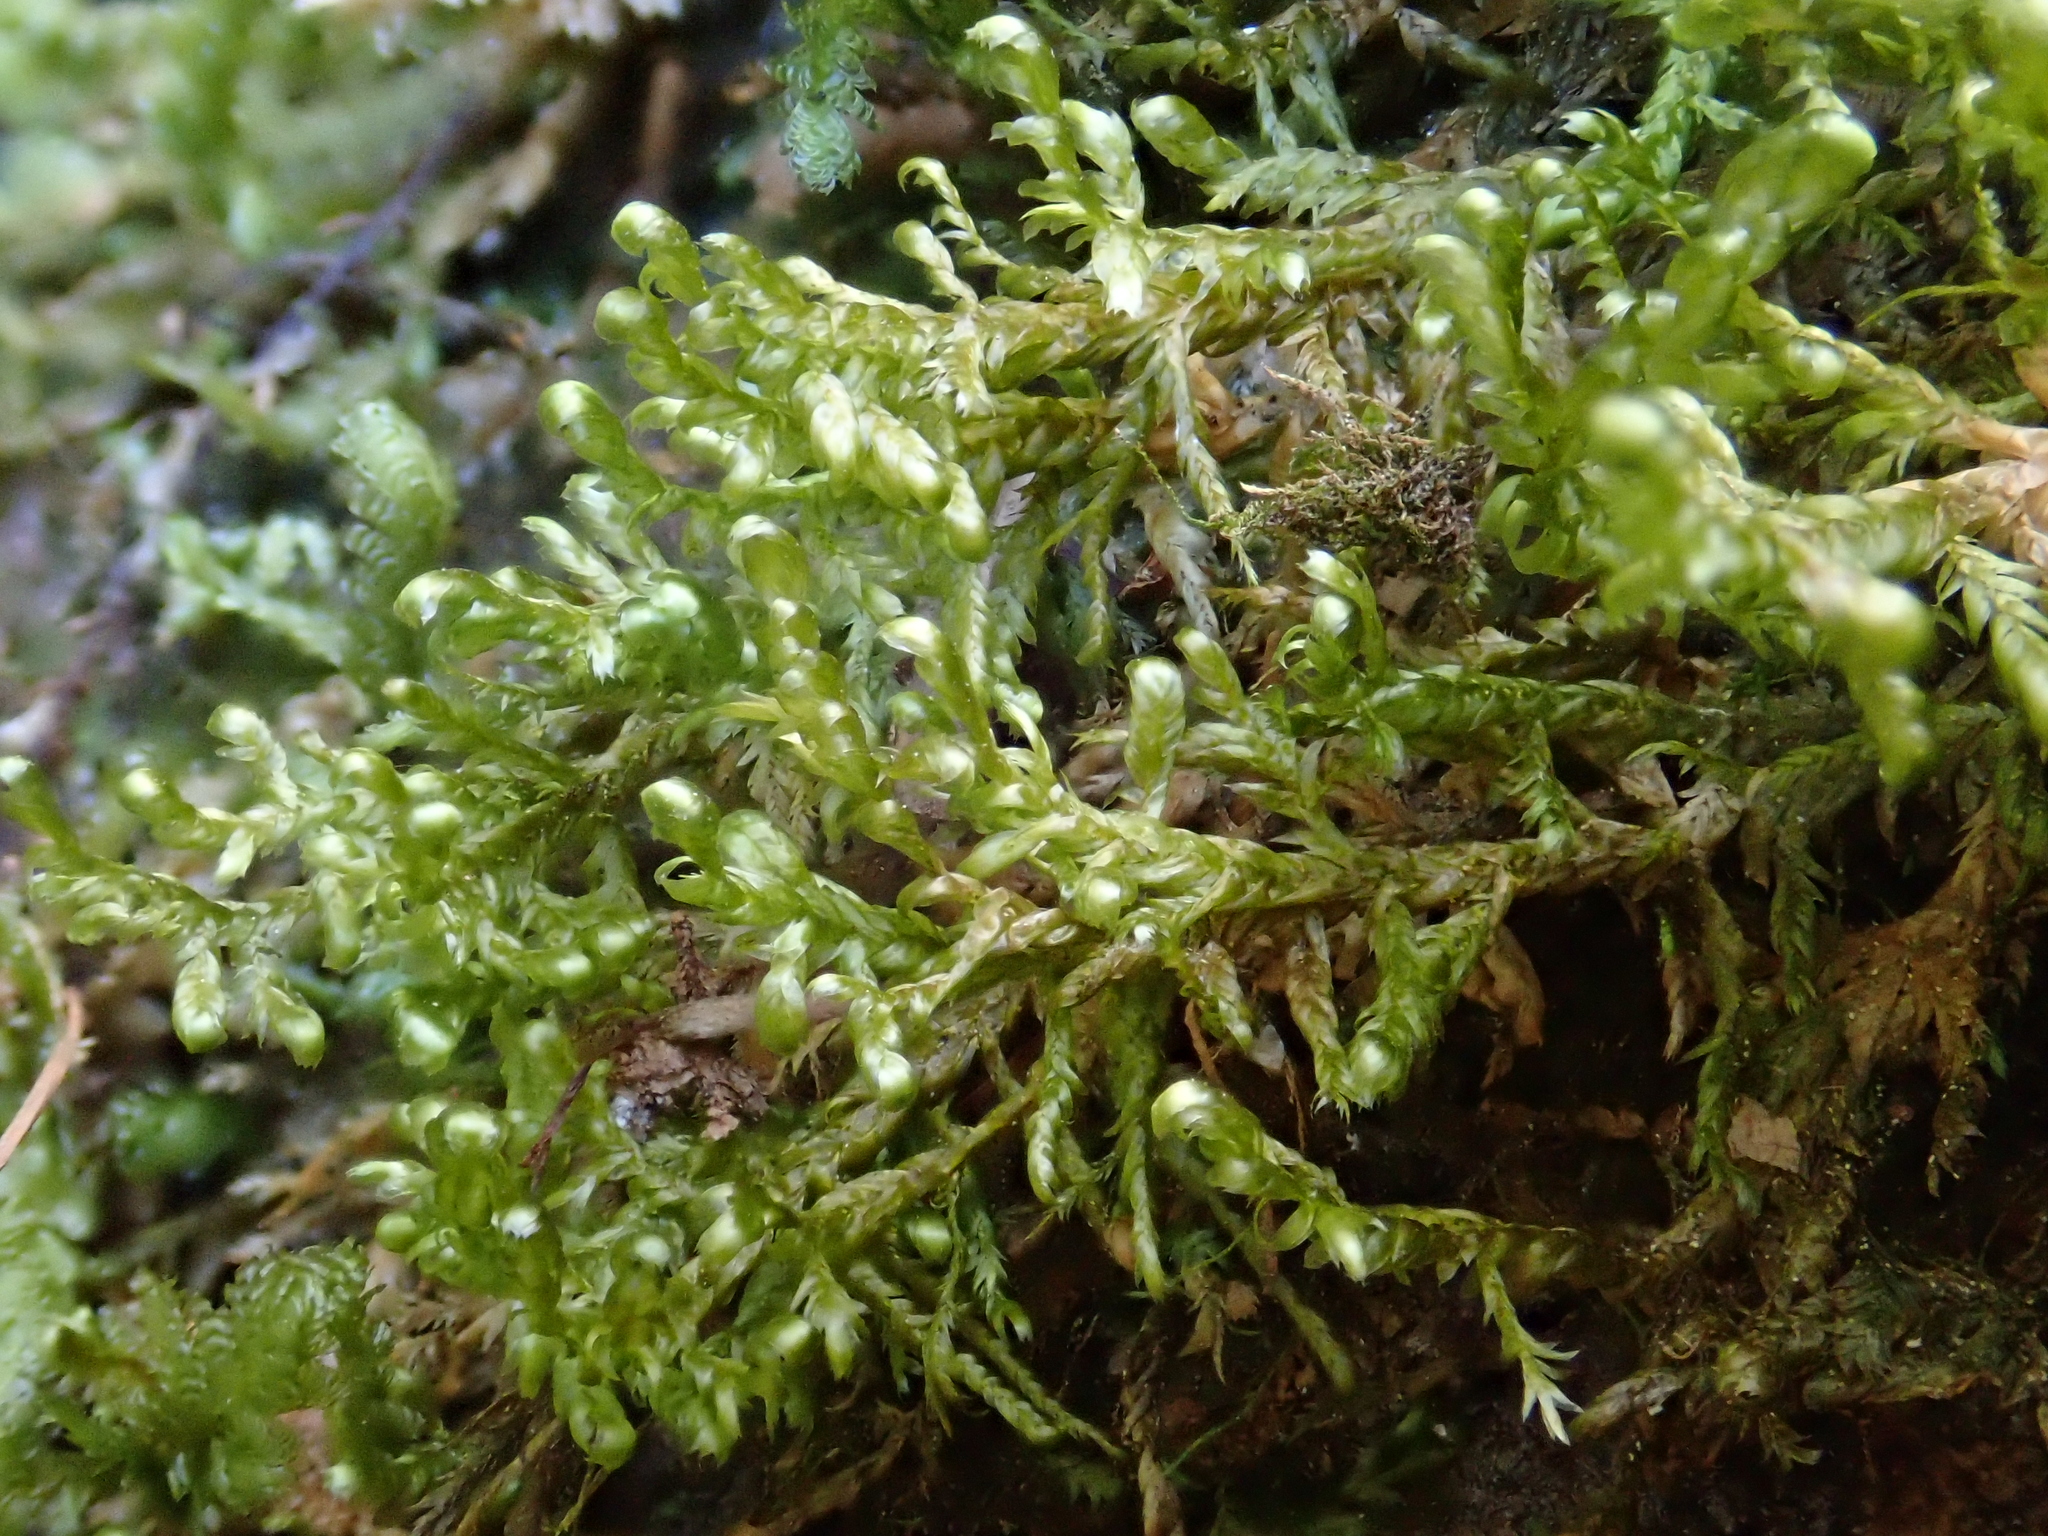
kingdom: Plantae
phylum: Bryophyta
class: Bryopsida
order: Hypnales
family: Neckeraceae
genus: Alleniella
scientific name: Alleniella complanata
